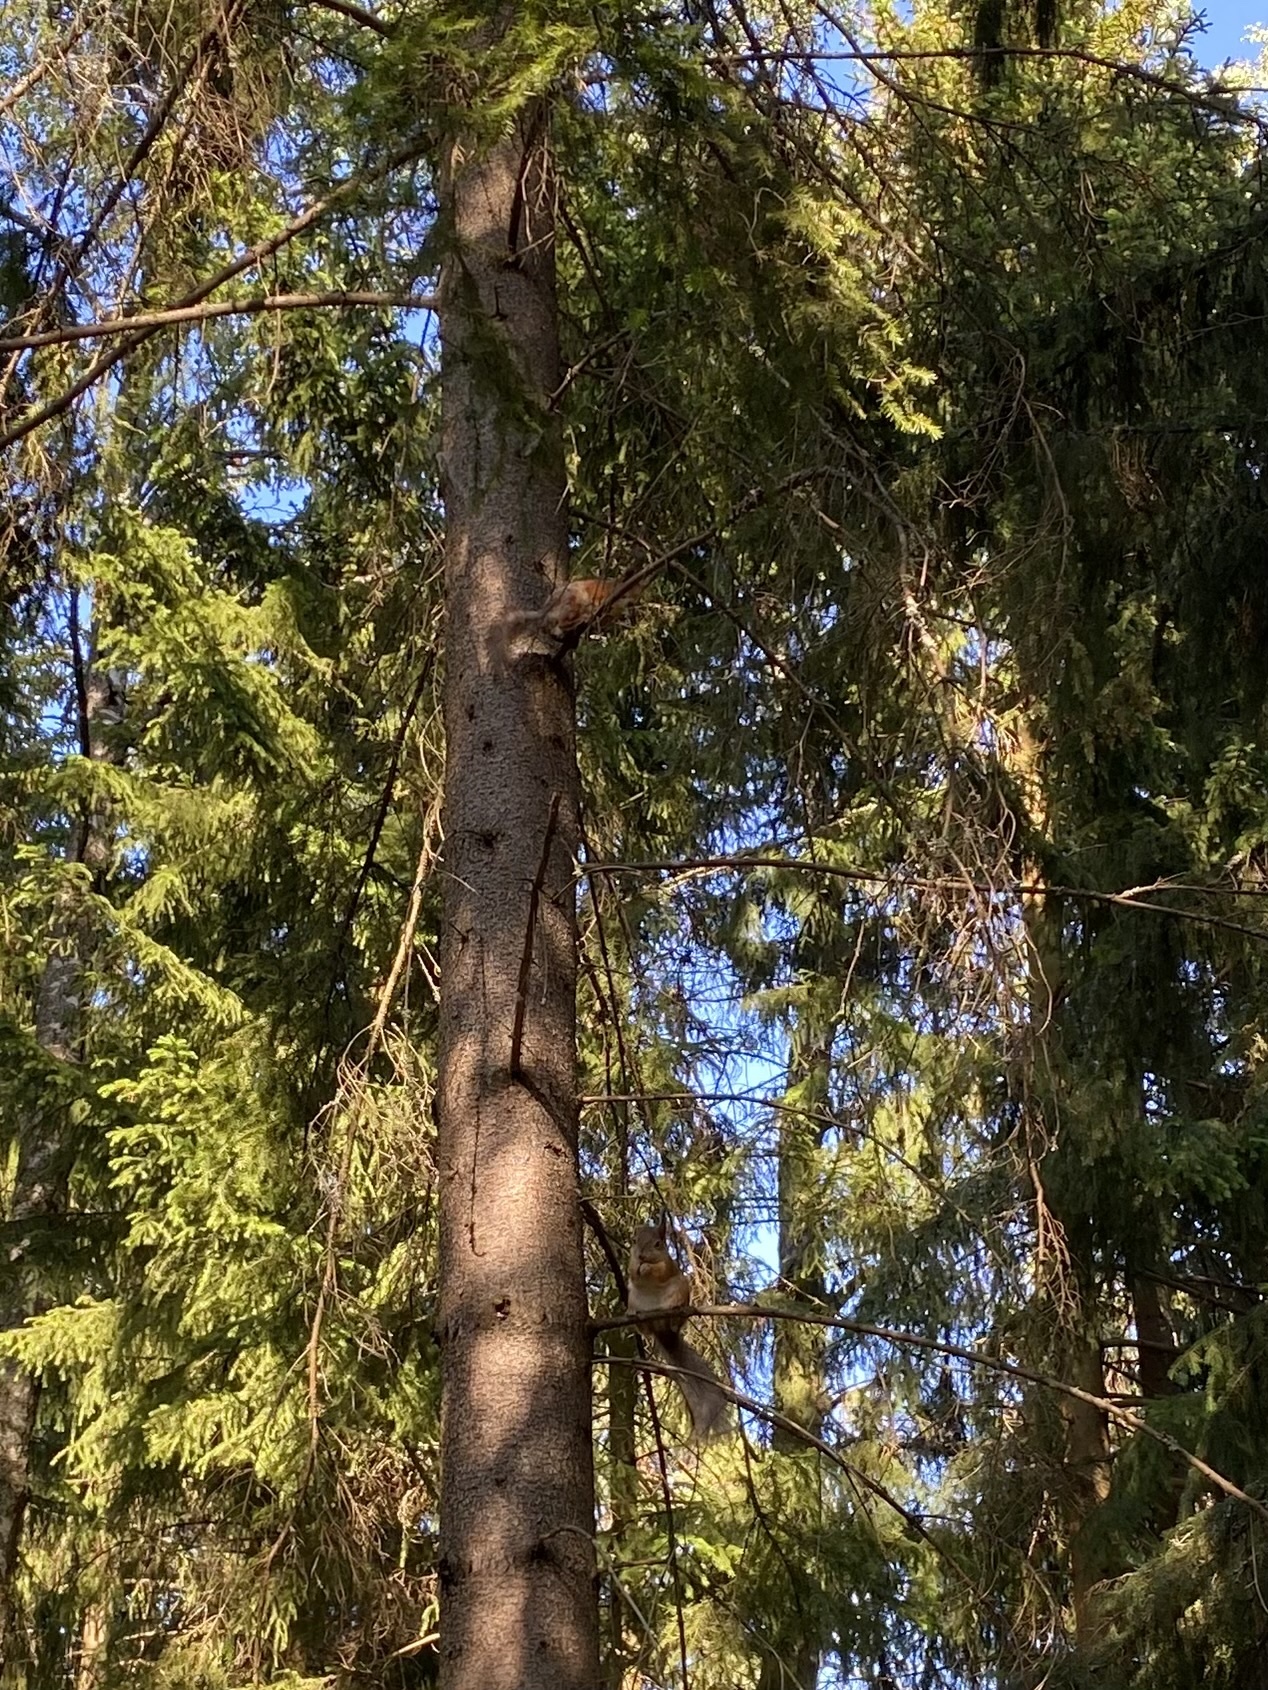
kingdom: Animalia
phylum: Chordata
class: Mammalia
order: Rodentia
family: Sciuridae
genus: Sciurus
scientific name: Sciurus vulgaris
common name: Eurasian red squirrel
